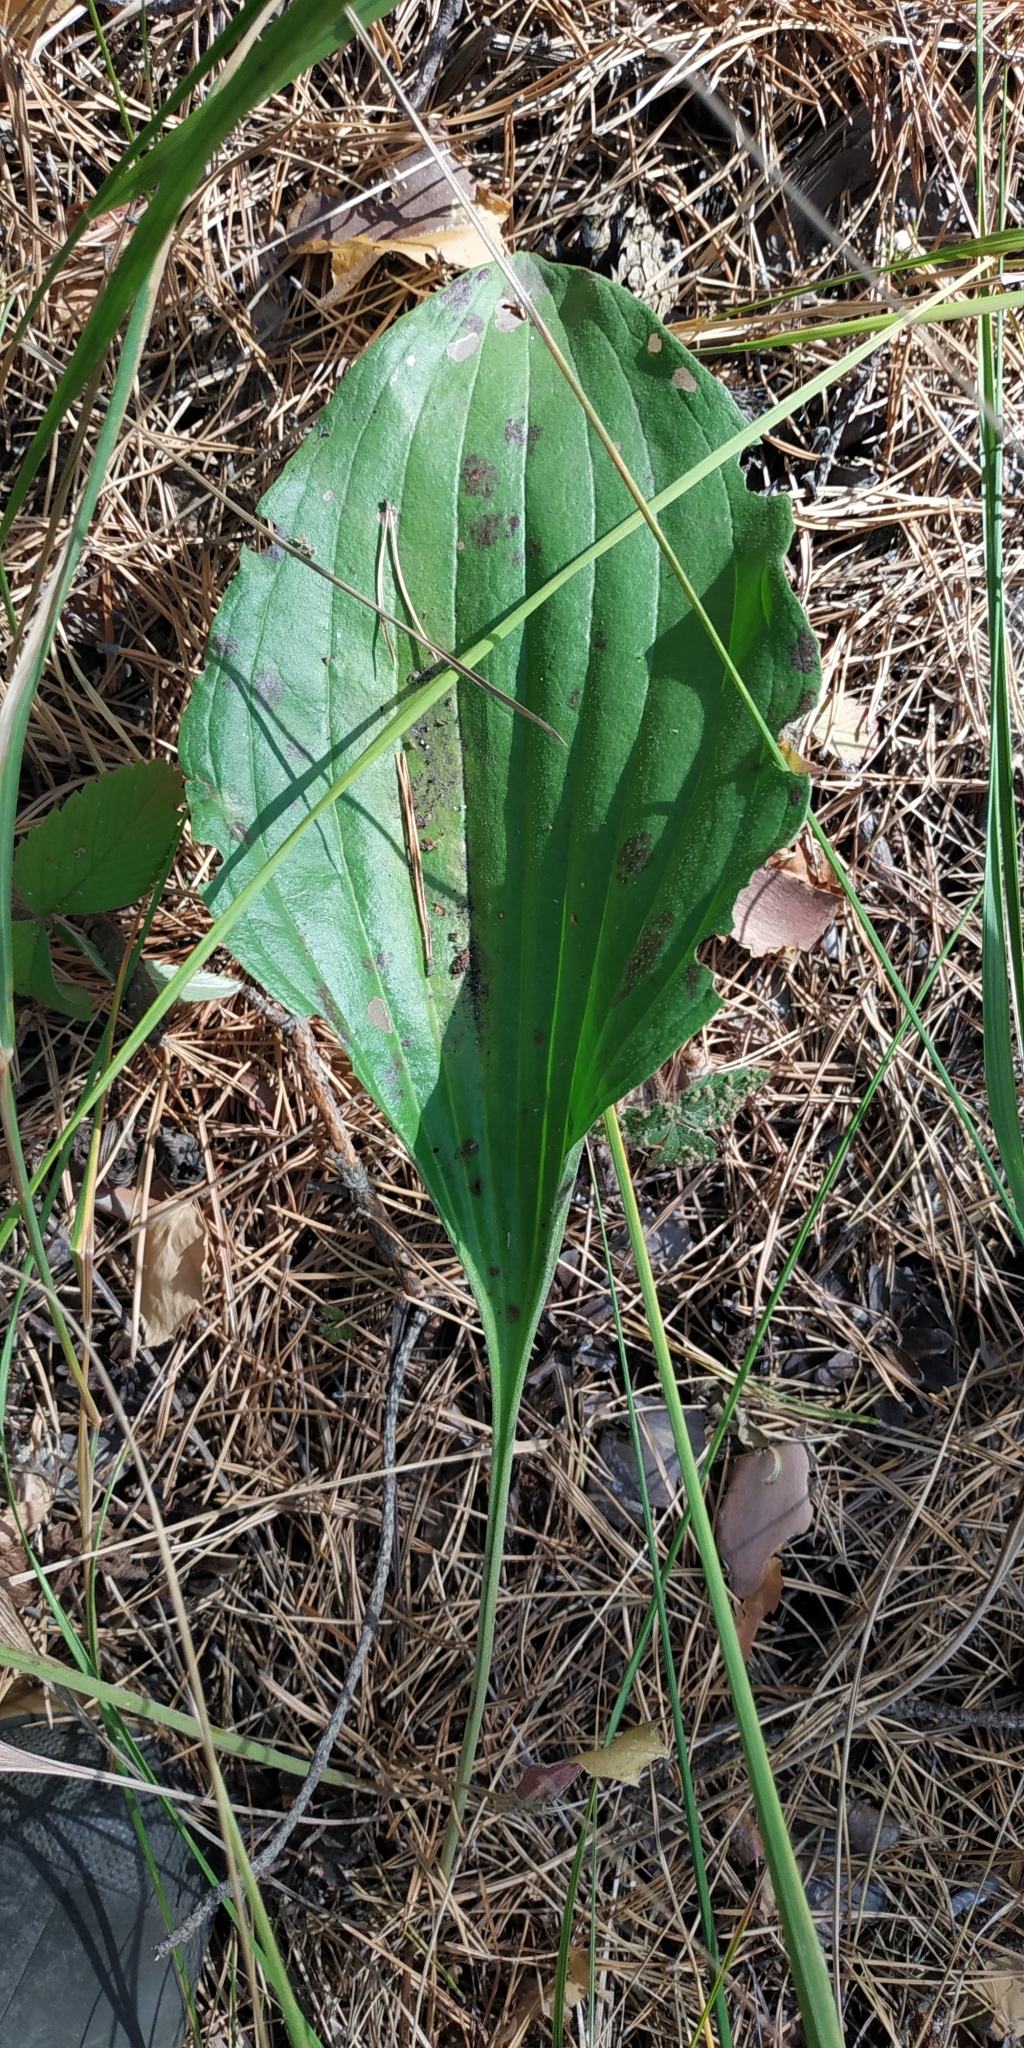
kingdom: Plantae
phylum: Tracheophyta
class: Magnoliopsida
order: Lamiales
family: Plantaginaceae
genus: Plantago
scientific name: Plantago maxima
